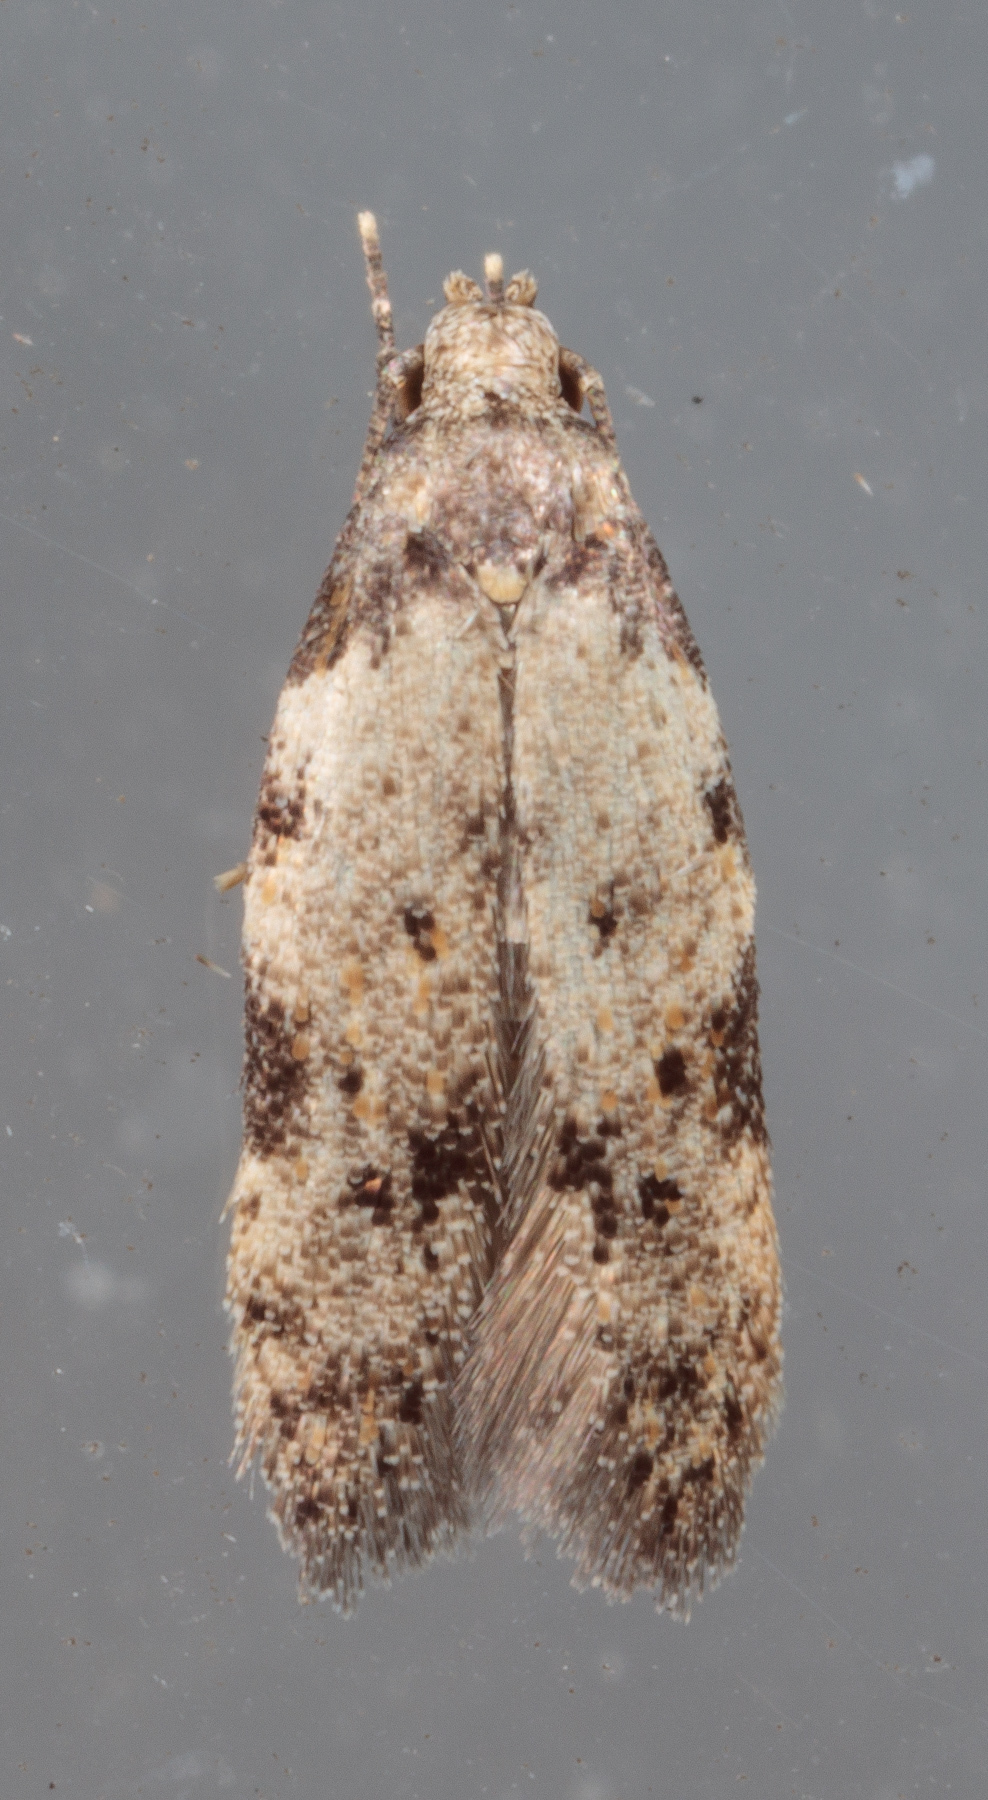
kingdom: Animalia
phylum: Arthropoda
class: Insecta
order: Lepidoptera
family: Autostichidae
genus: Taygete
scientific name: Taygete attributella
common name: Triangle-marked twirler moth
